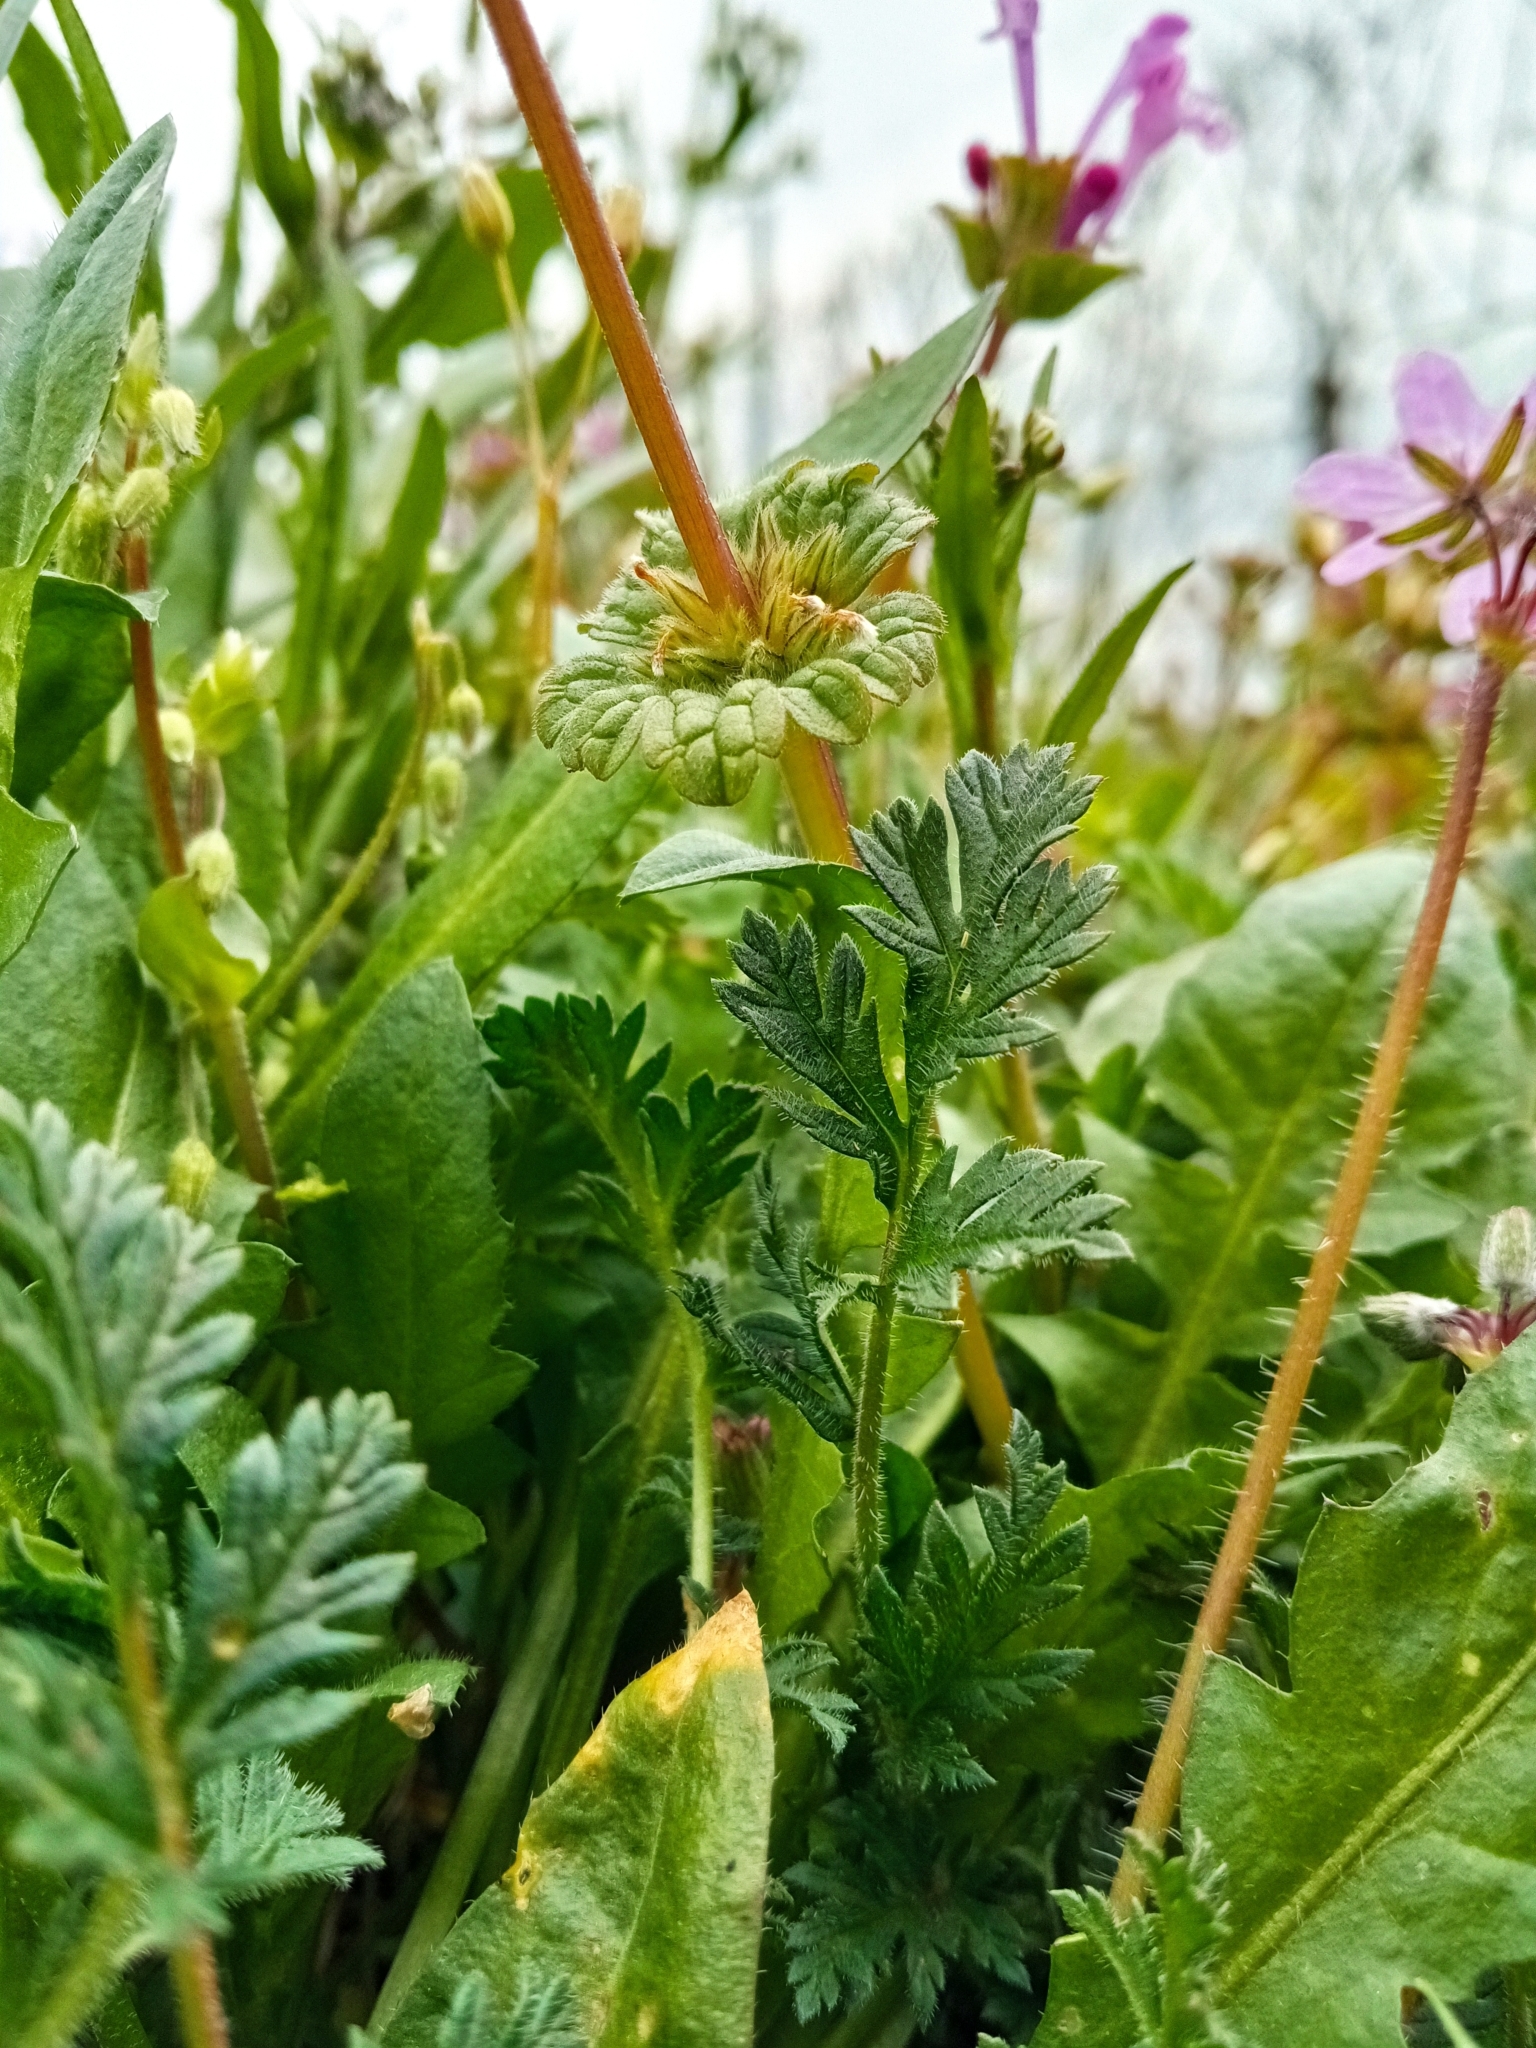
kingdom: Plantae
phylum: Tracheophyta
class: Magnoliopsida
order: Lamiales
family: Lamiaceae
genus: Lamium
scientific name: Lamium amplexicaule
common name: Henbit dead-nettle
